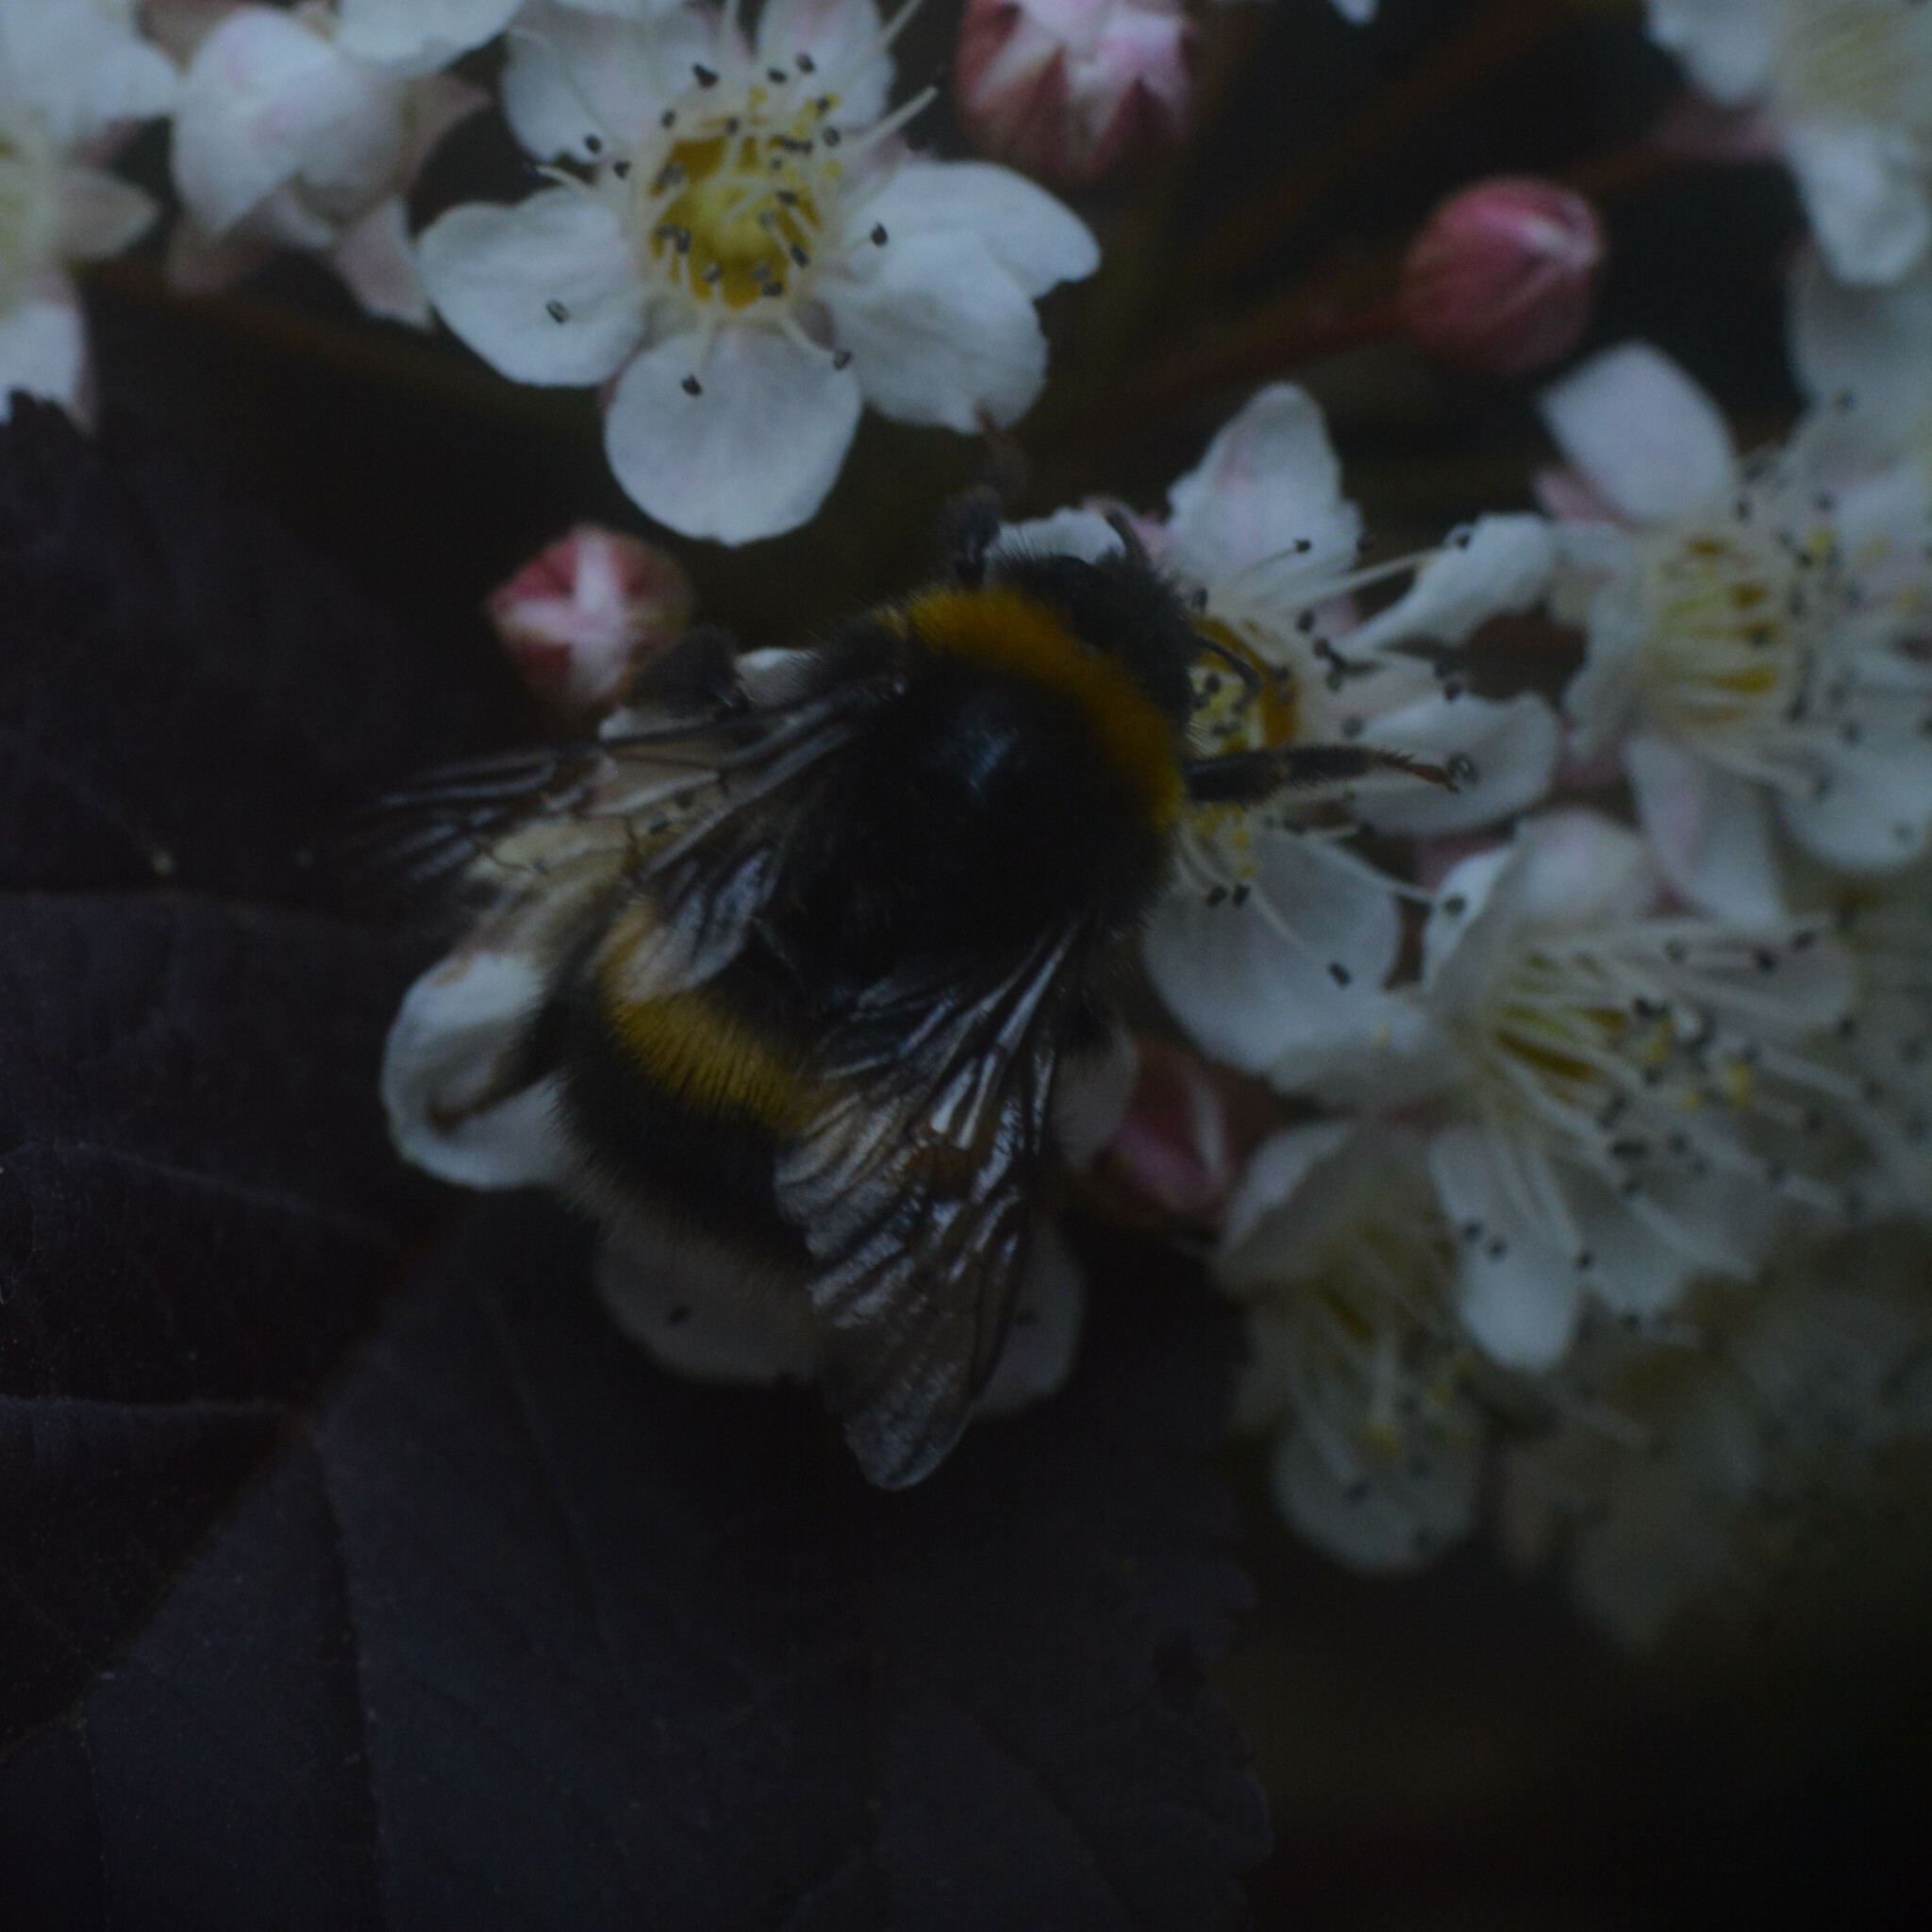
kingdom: Animalia
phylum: Arthropoda
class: Insecta
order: Hymenoptera
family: Apidae
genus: Bombus
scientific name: Bombus terrestris
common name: Buff-tailed bumblebee
